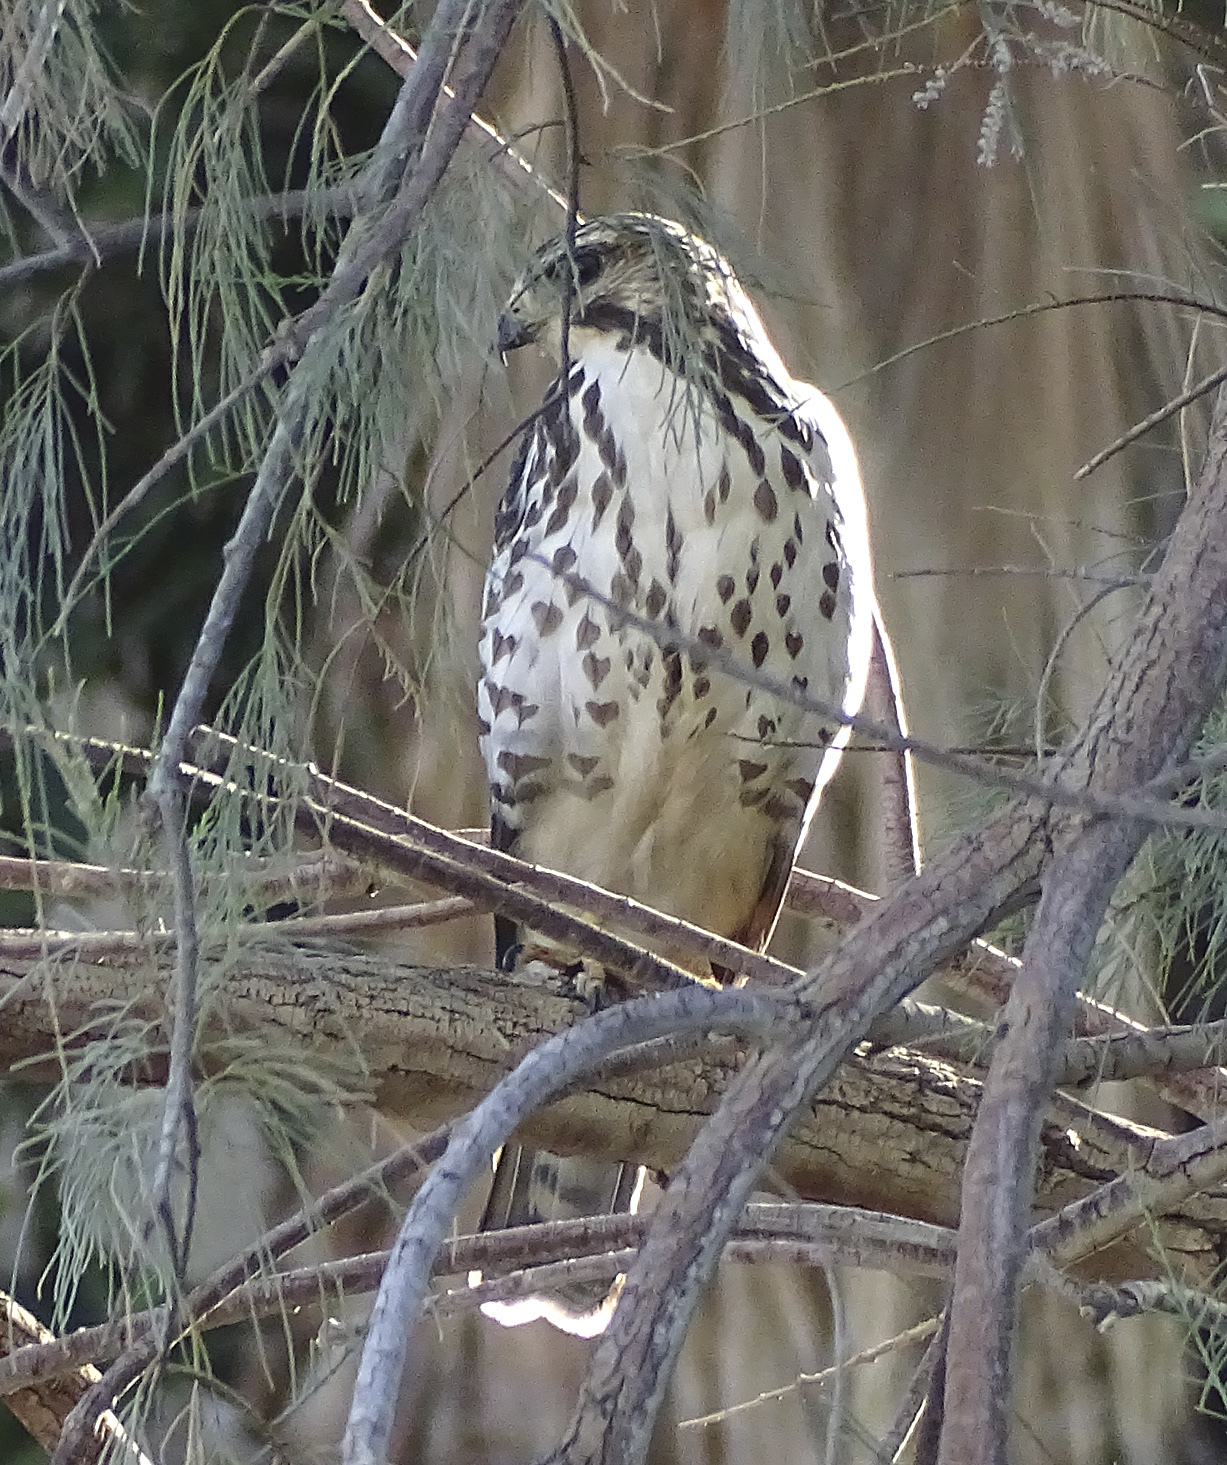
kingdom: Animalia
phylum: Chordata
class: Aves
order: Accipitriformes
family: Accipitridae
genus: Buteo
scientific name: Buteo platypterus
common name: Broad-winged hawk
